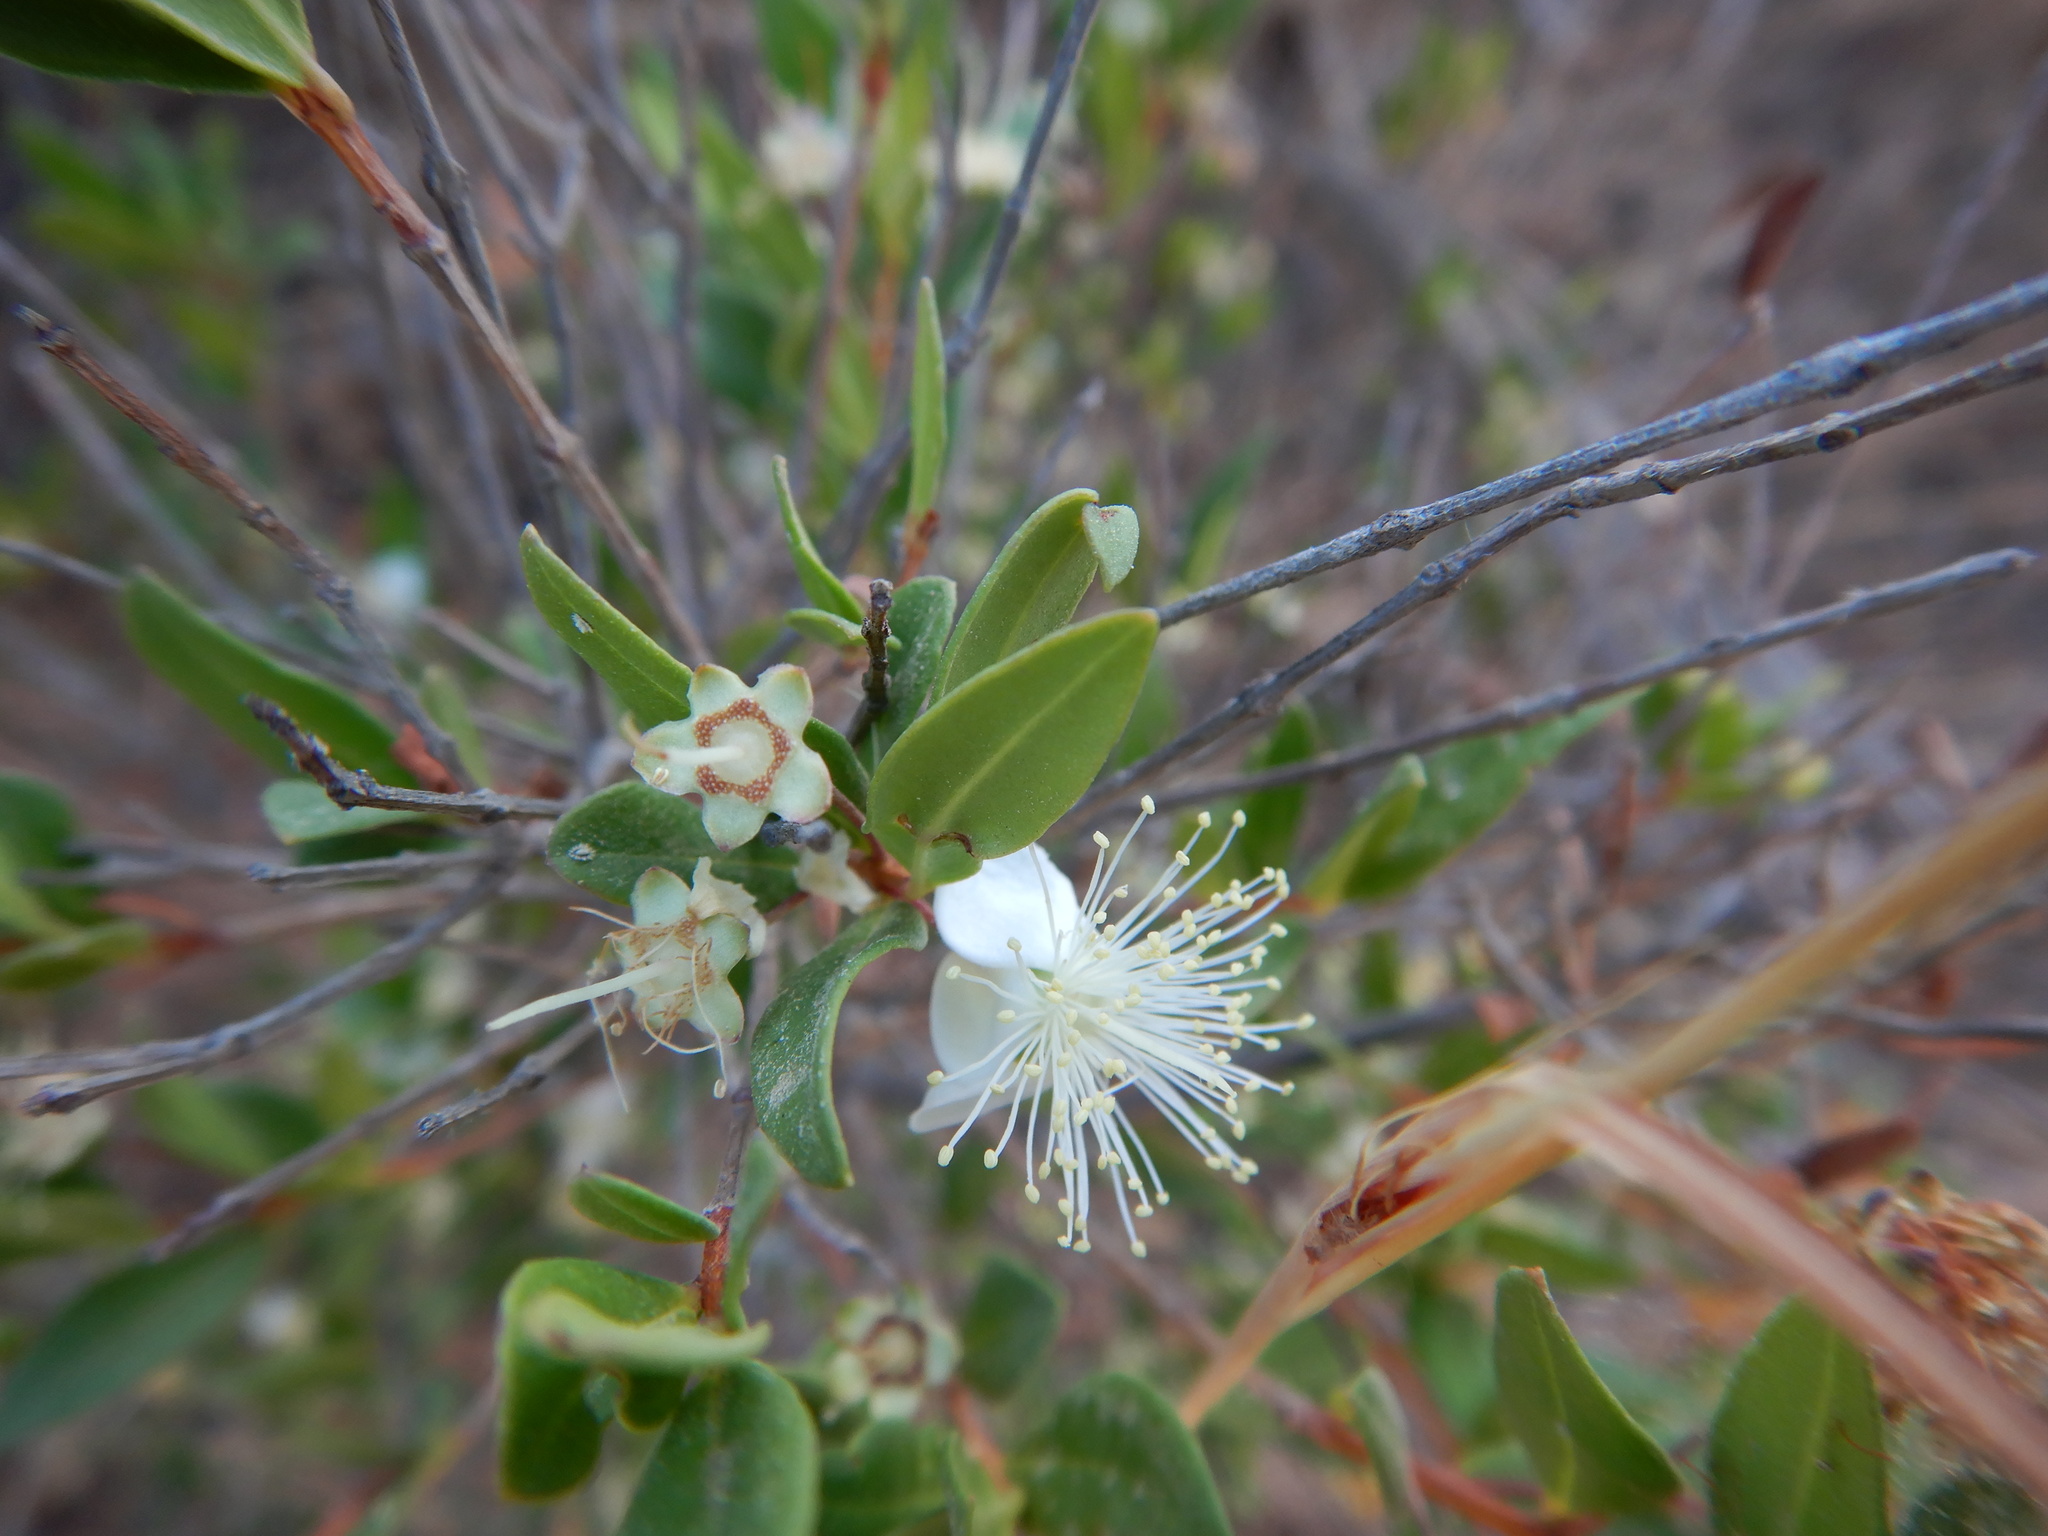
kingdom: Plantae
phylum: Tracheophyta
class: Magnoliopsida
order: Myrtales
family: Myrtaceae
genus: Myrtus
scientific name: Myrtus communis
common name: Myrtle
